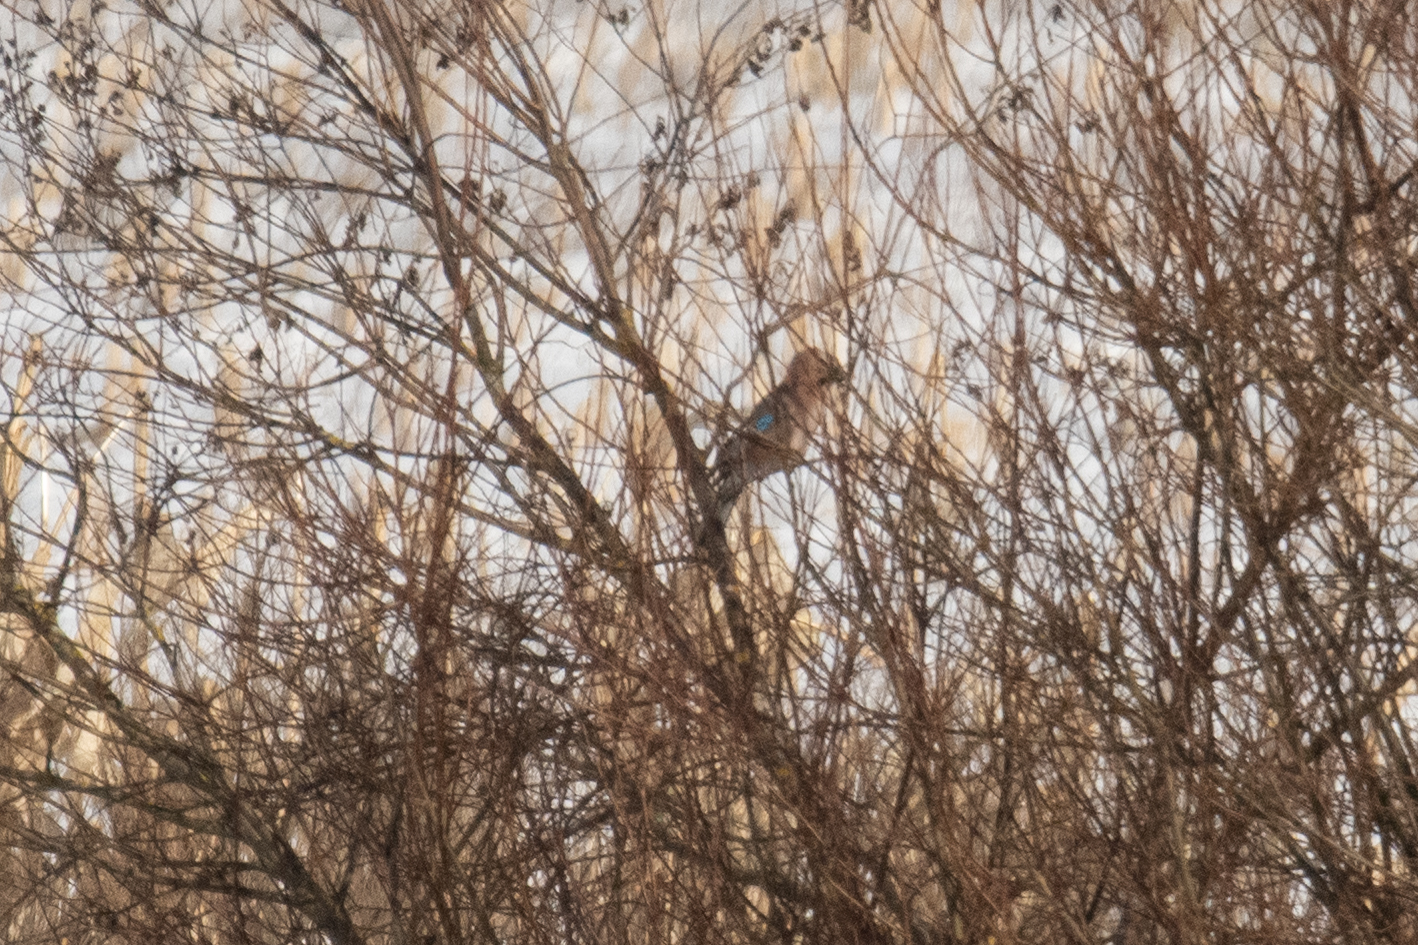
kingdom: Animalia
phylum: Chordata
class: Aves
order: Passeriformes
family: Corvidae
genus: Garrulus
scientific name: Garrulus glandarius
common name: Eurasian jay
